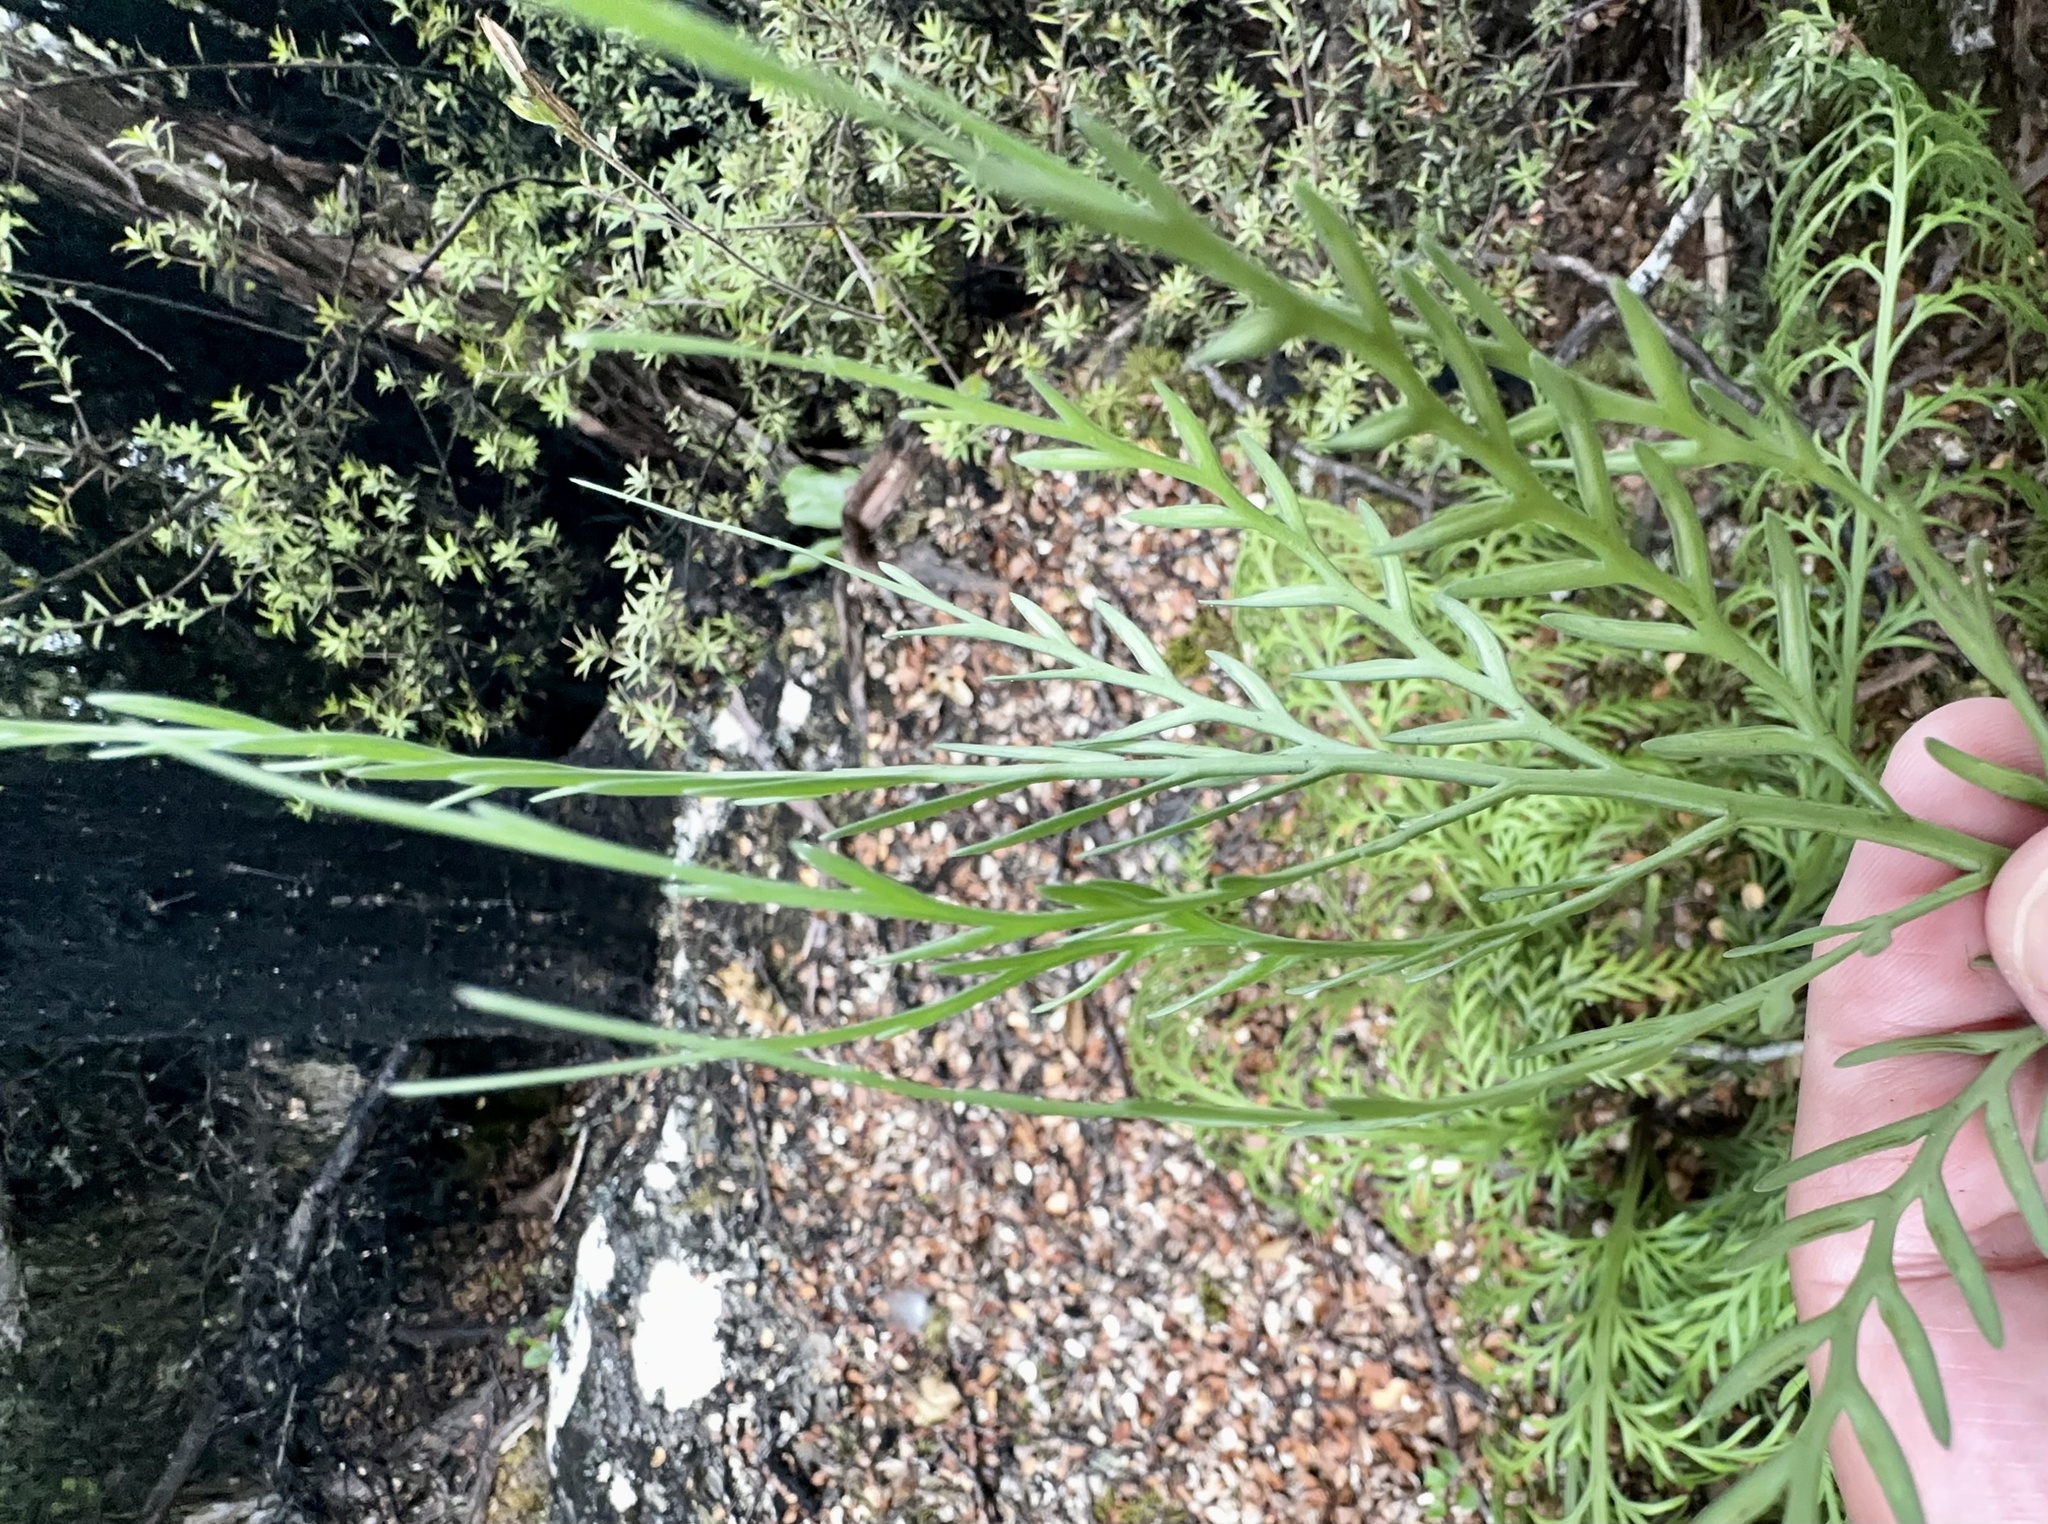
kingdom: Plantae
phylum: Tracheophyta
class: Polypodiopsida
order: Polypodiales
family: Aspleniaceae
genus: Asplenium
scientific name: Asplenium appendiculatum
